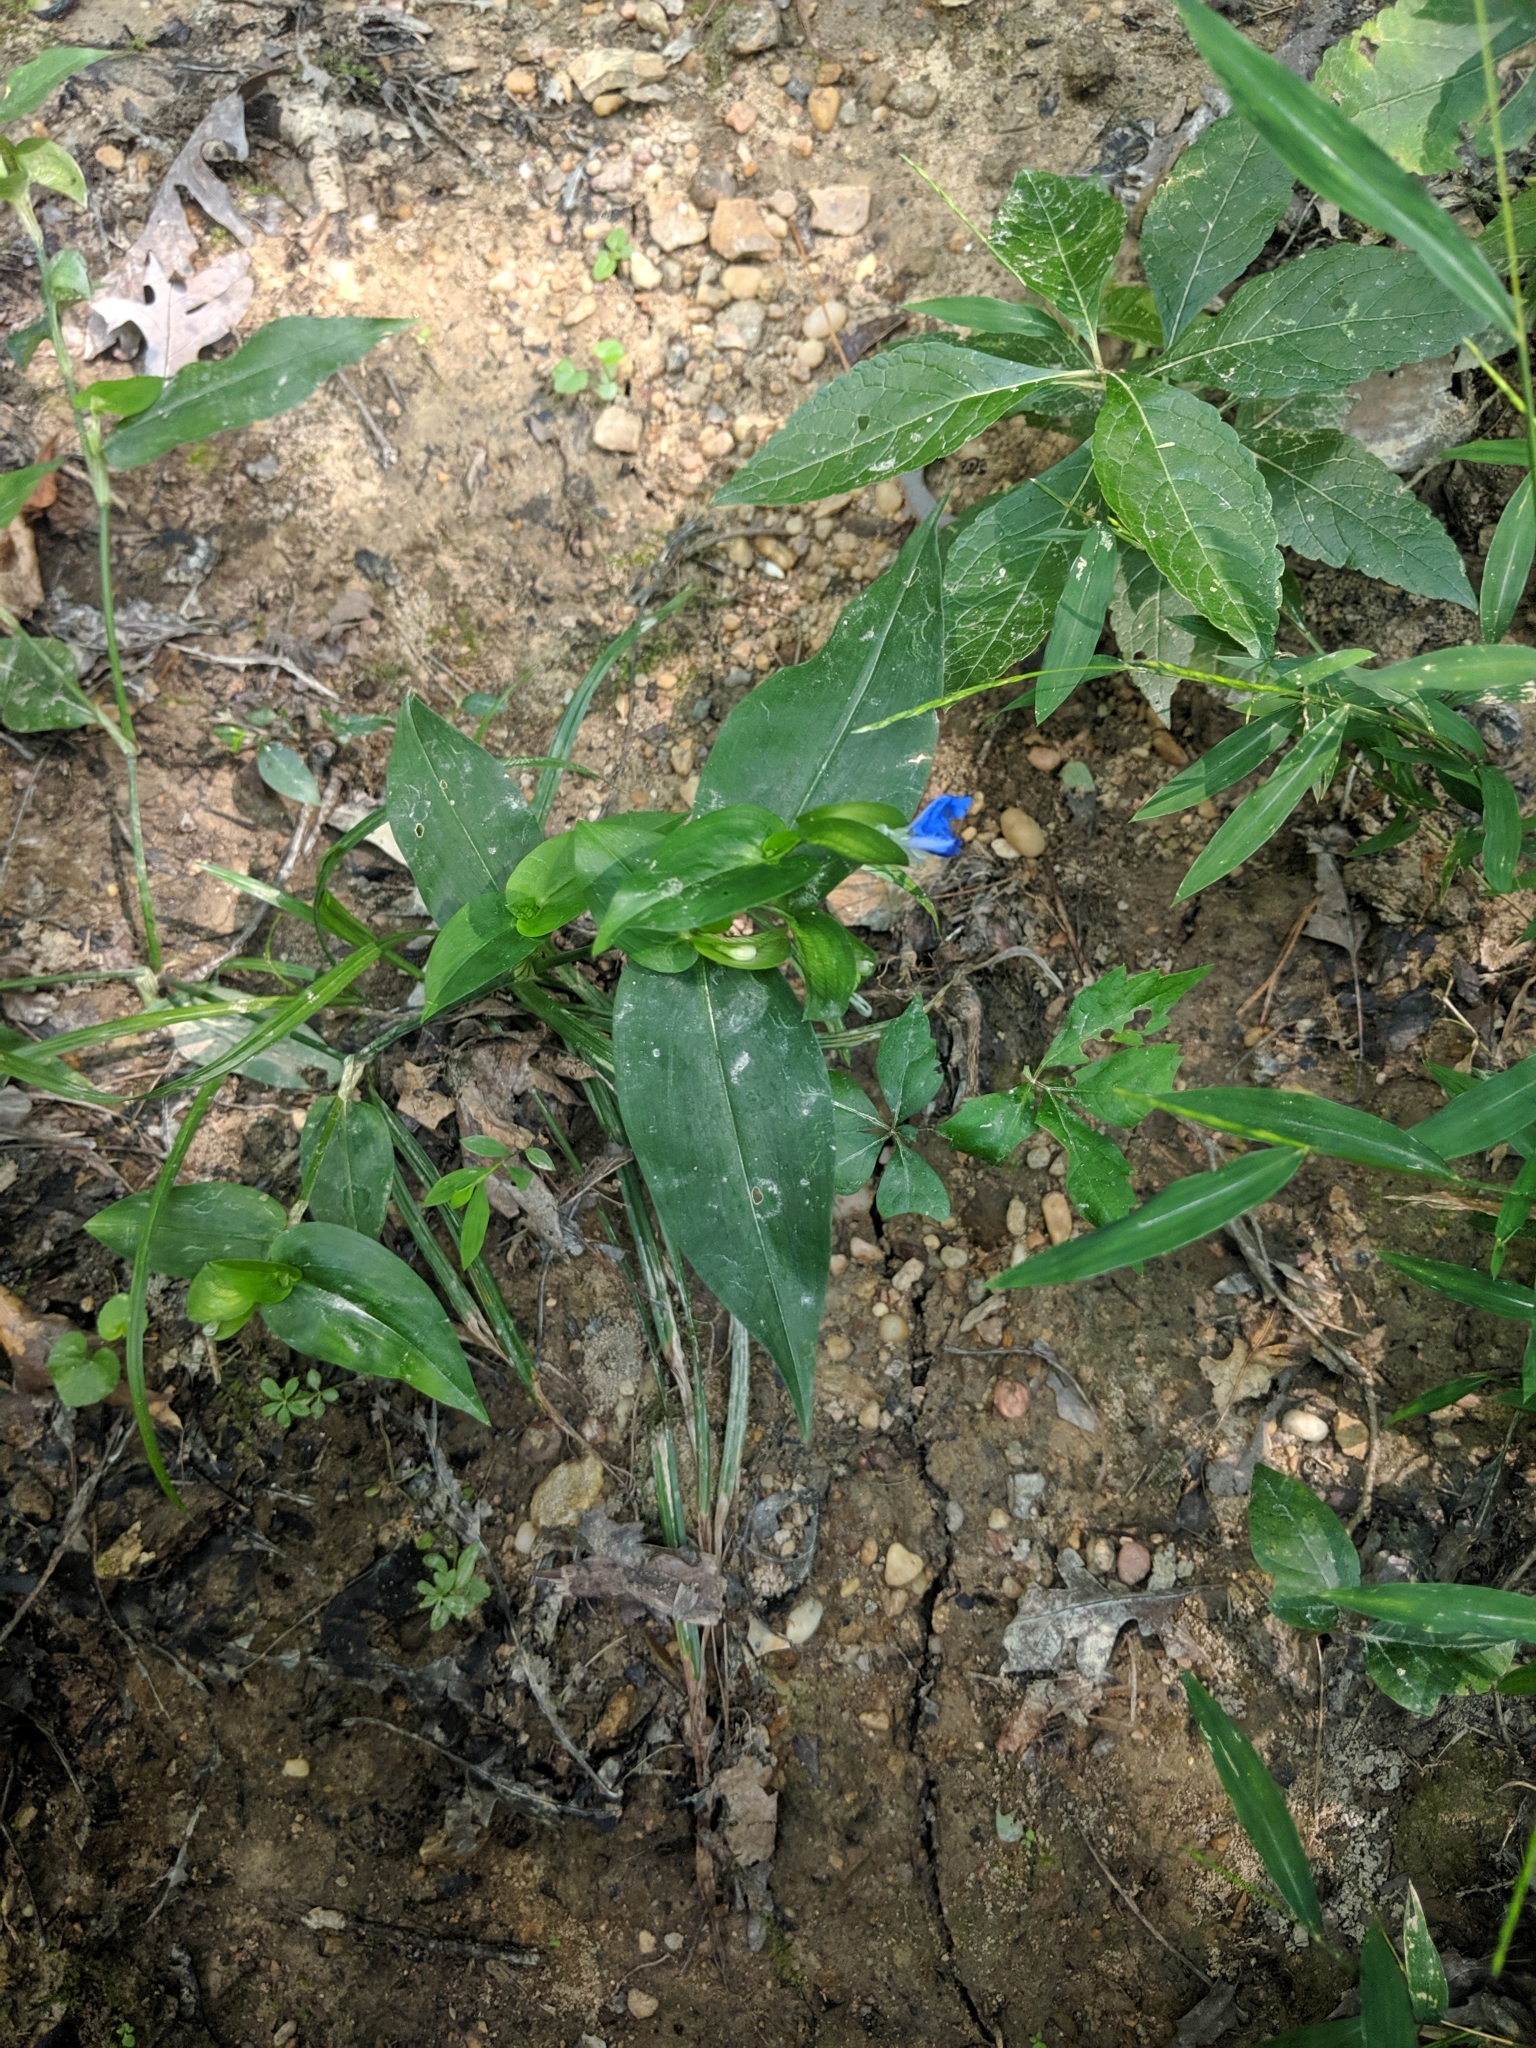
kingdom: Plantae
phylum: Tracheophyta
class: Liliopsida
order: Commelinales
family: Commelinaceae
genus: Commelina
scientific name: Commelina communis
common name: Asiatic dayflower
